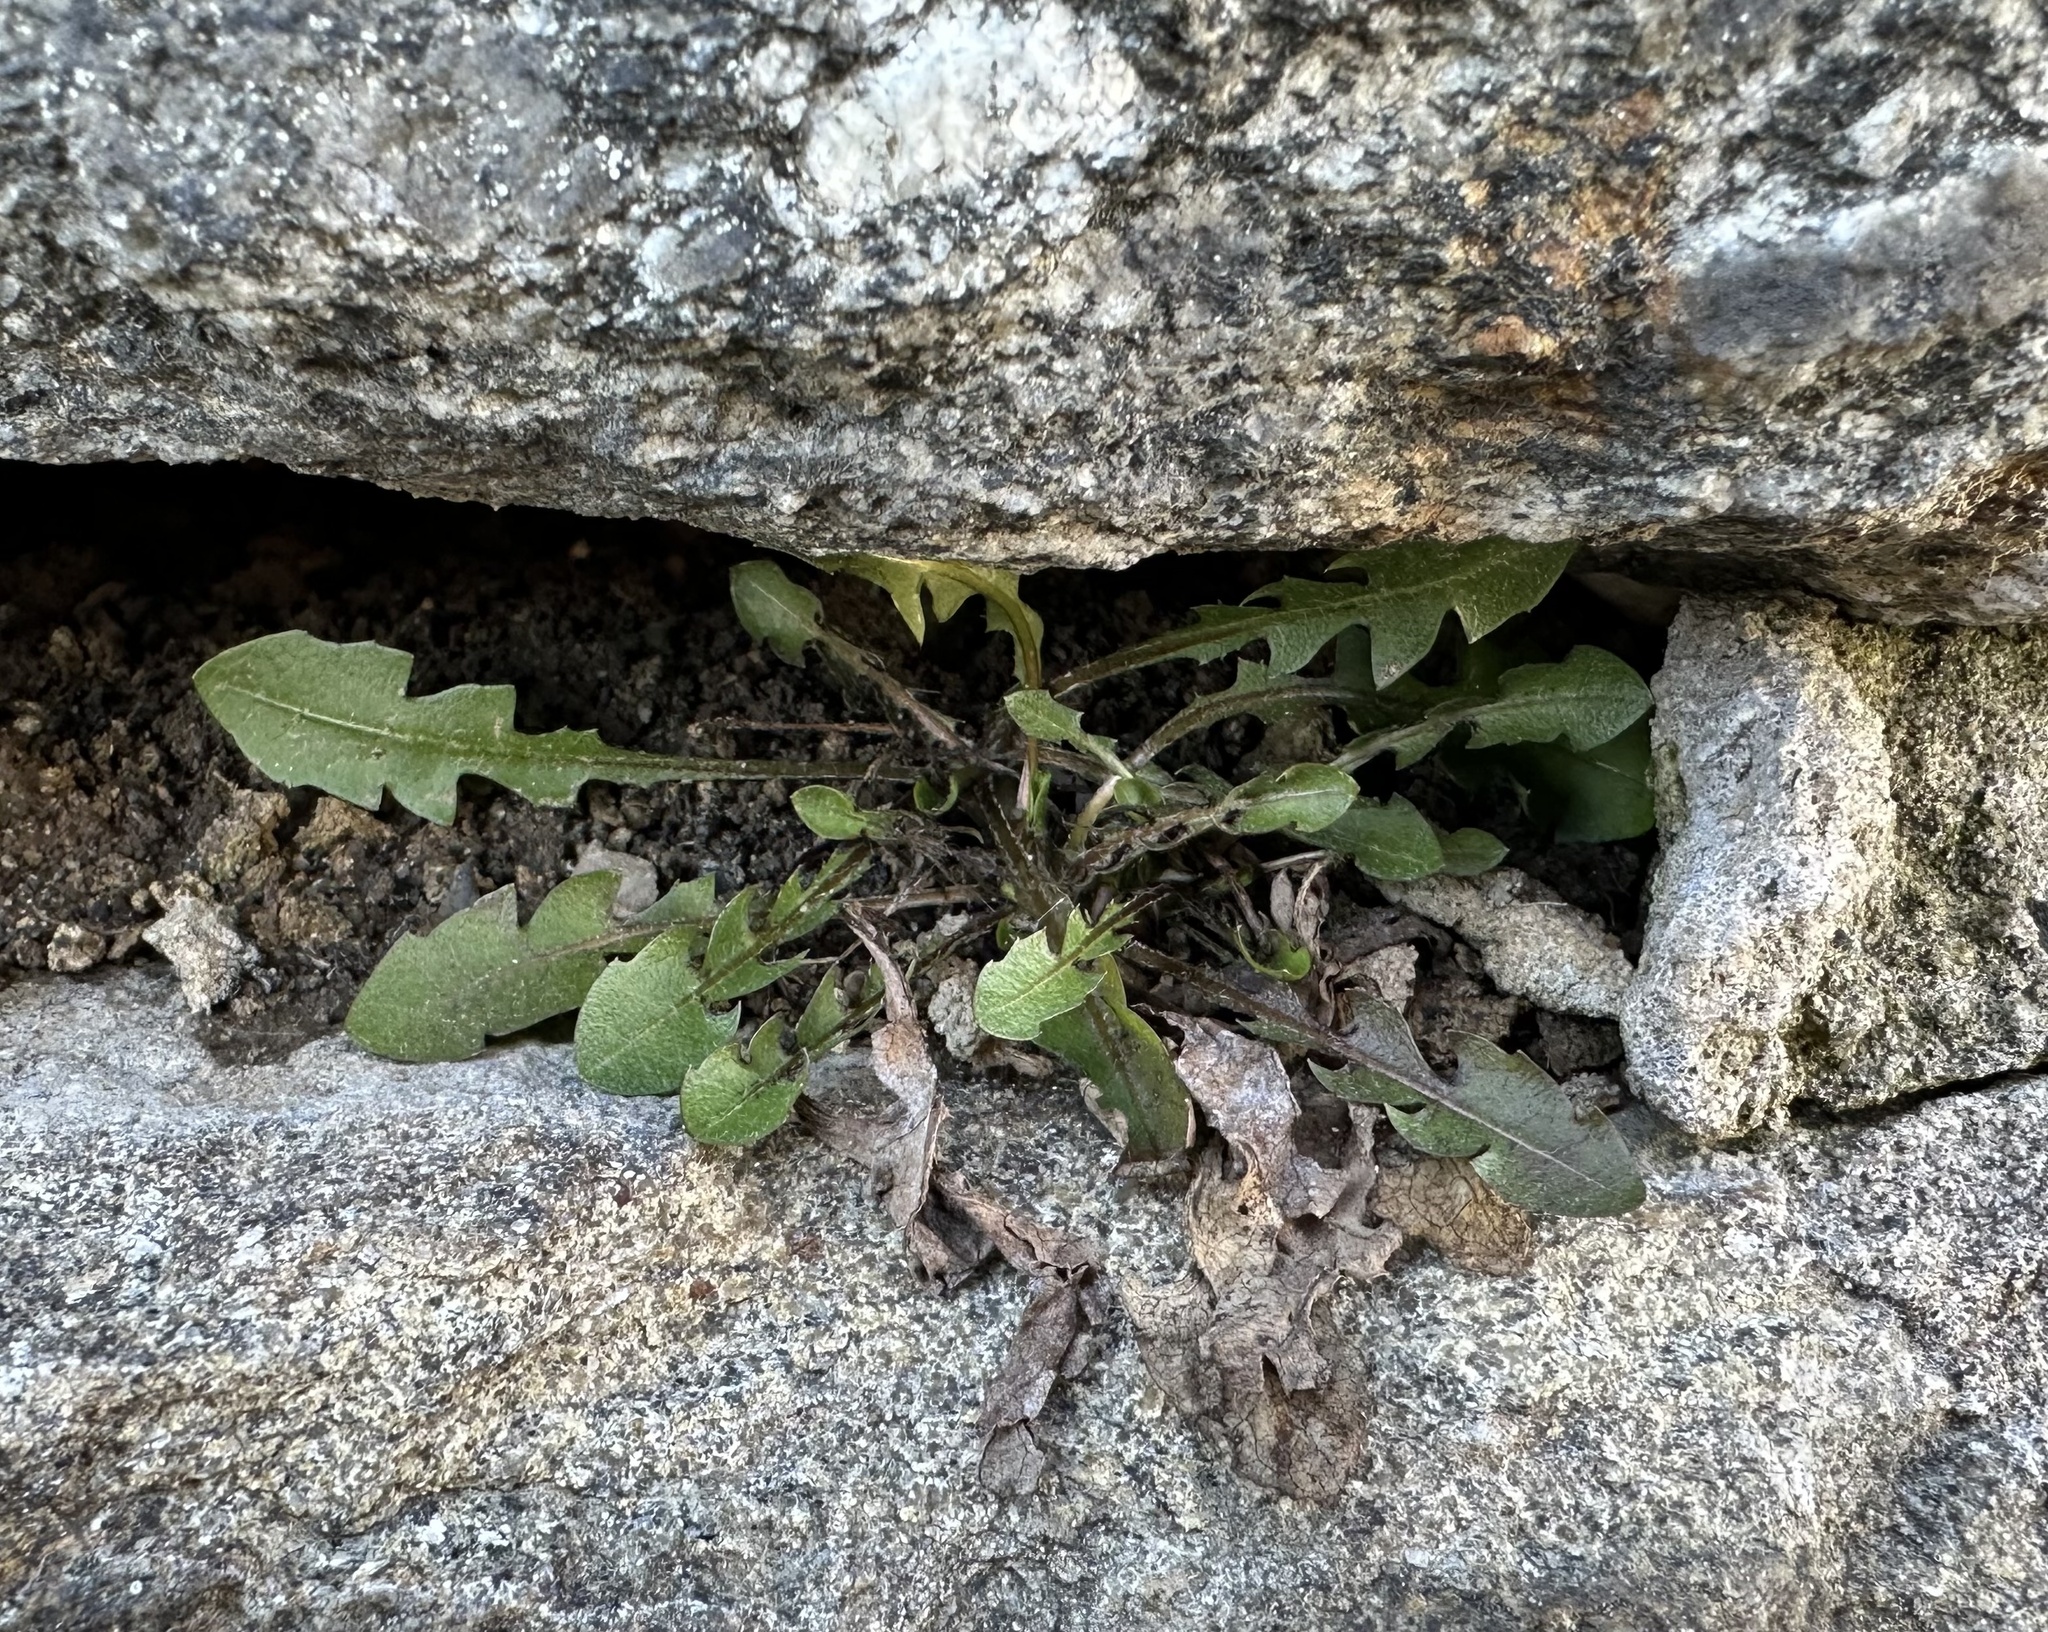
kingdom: Plantae
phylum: Tracheophyta
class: Magnoliopsida
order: Asterales
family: Asteraceae
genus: Taraxacum
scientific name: Taraxacum officinale
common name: Common dandelion
